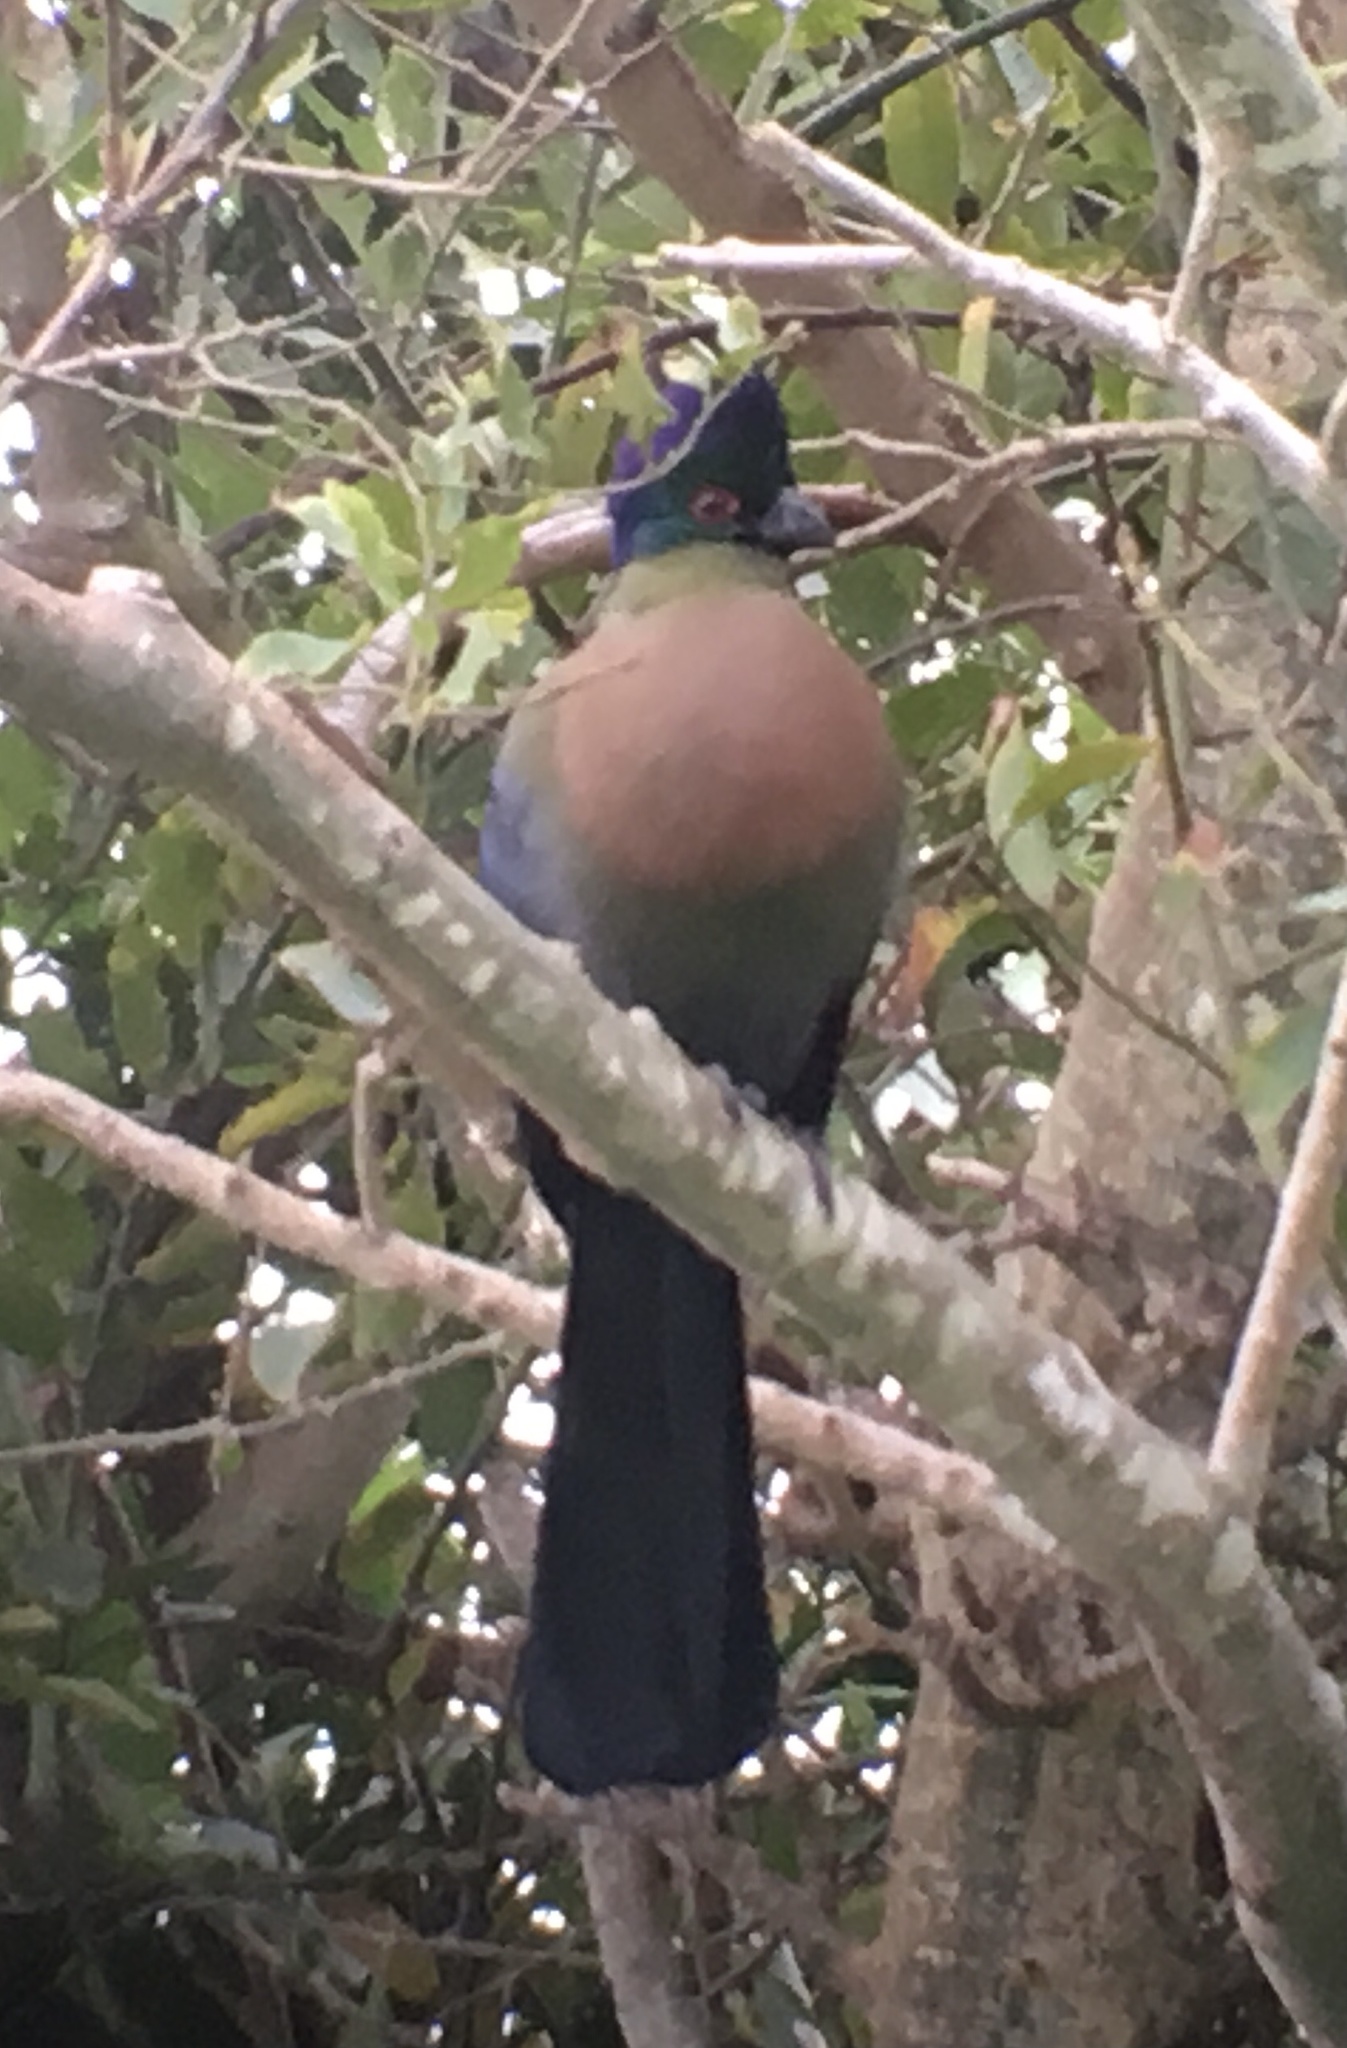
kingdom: Animalia
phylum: Chordata
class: Aves
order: Musophagiformes
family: Musophagidae
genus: Tauraco
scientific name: Tauraco porphyreolophus
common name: Purple-crested turaco
